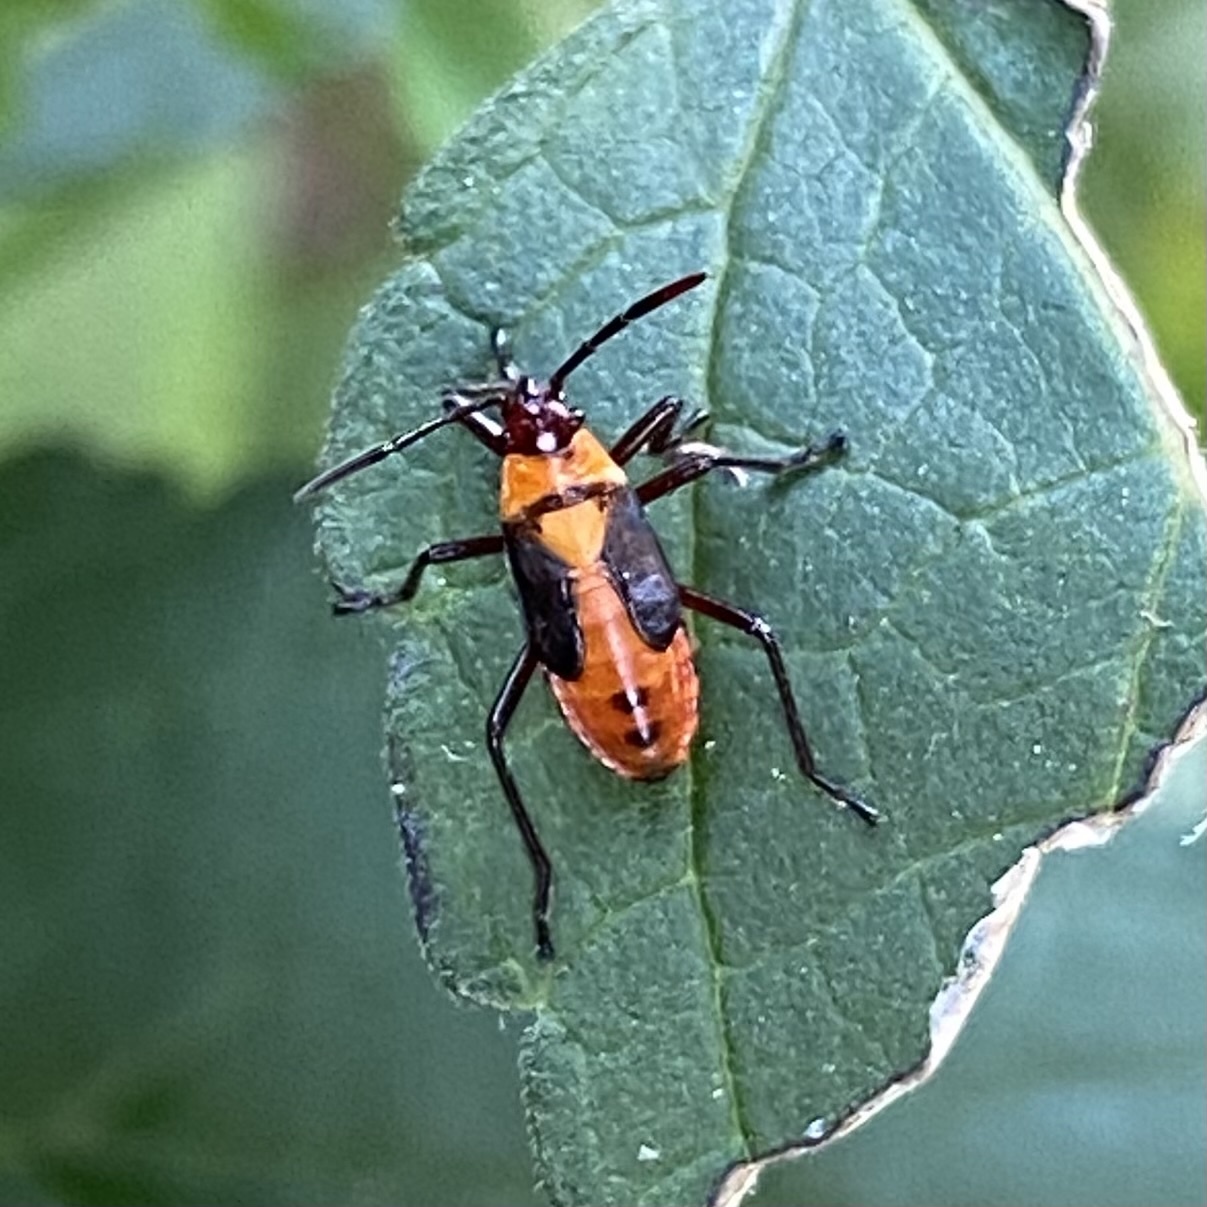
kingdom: Animalia
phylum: Arthropoda
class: Insecta
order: Hemiptera
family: Lygaeidae
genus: Oncopeltus
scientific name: Oncopeltus fasciatus
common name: Large milkweed bug
